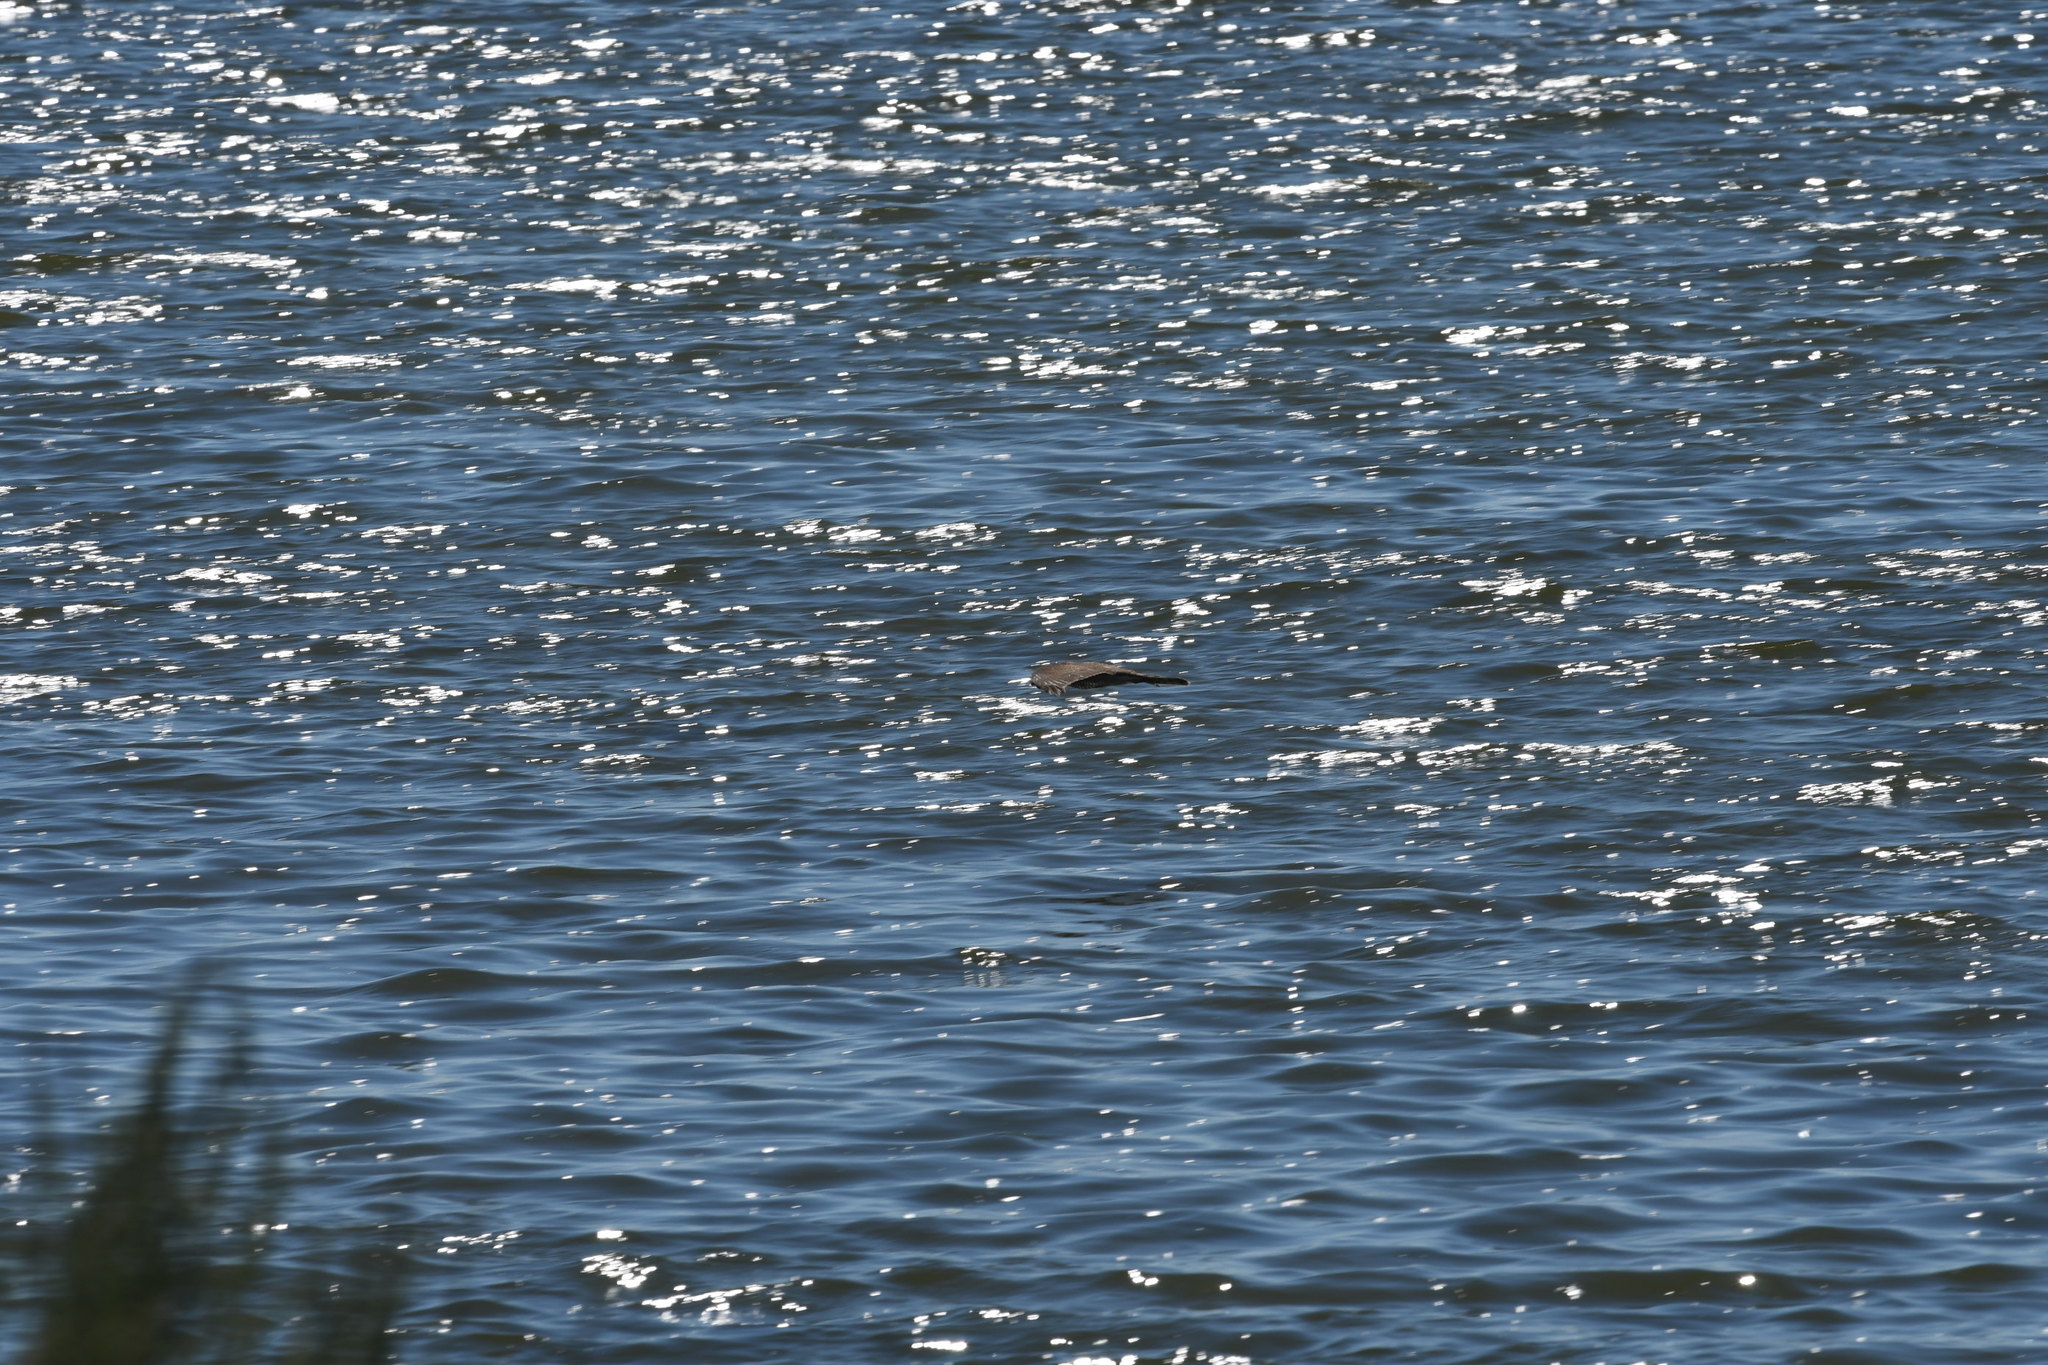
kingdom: Animalia
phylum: Chordata
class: Aves
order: Accipitriformes
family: Accipitridae
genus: Accipiter
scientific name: Accipiter nisus
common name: Eurasian sparrowhawk
